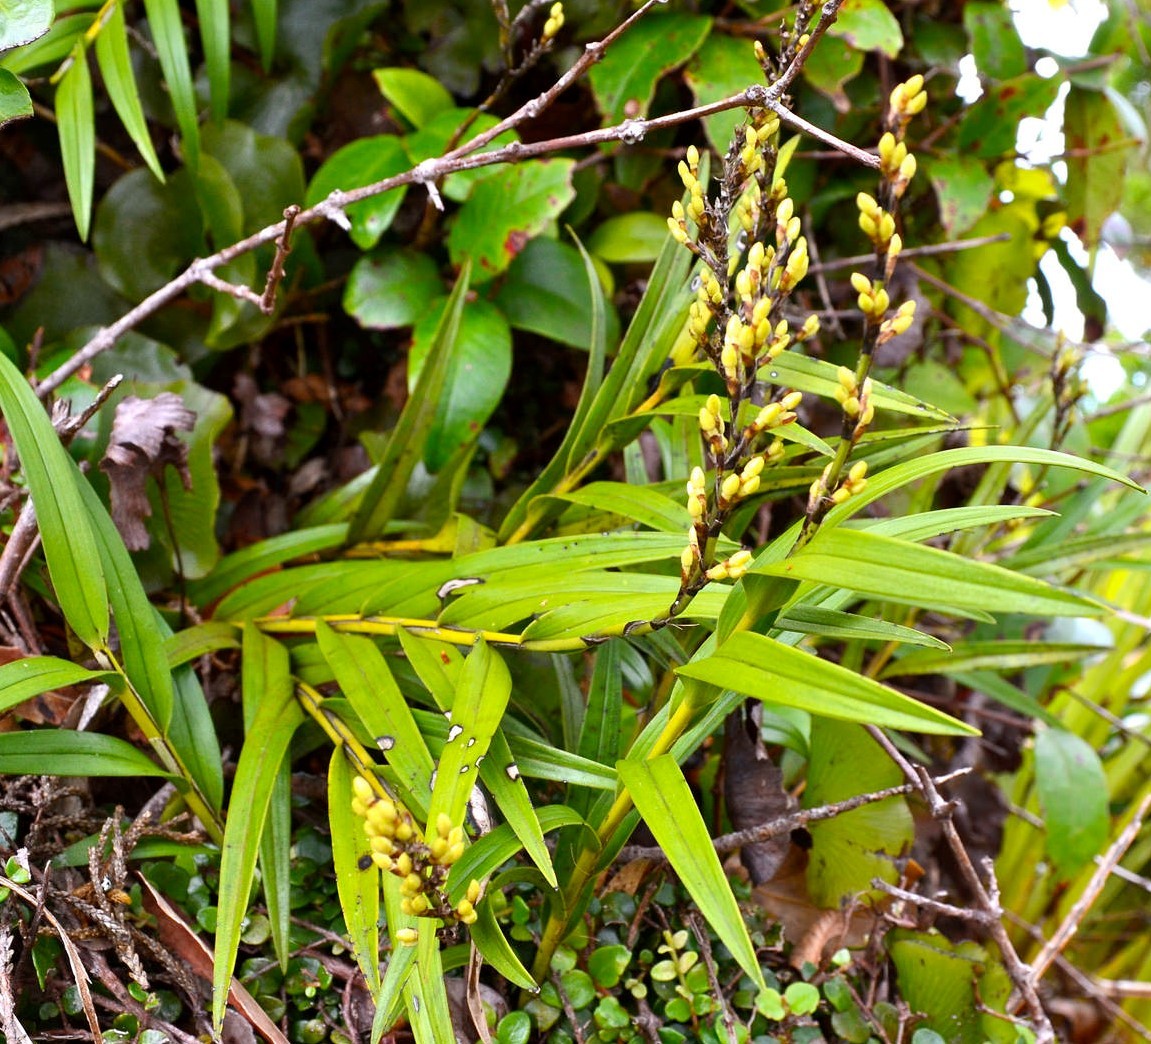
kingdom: Plantae
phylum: Tracheophyta
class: Liliopsida
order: Asparagales
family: Orchidaceae
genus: Earina
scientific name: Earina autumnalis
